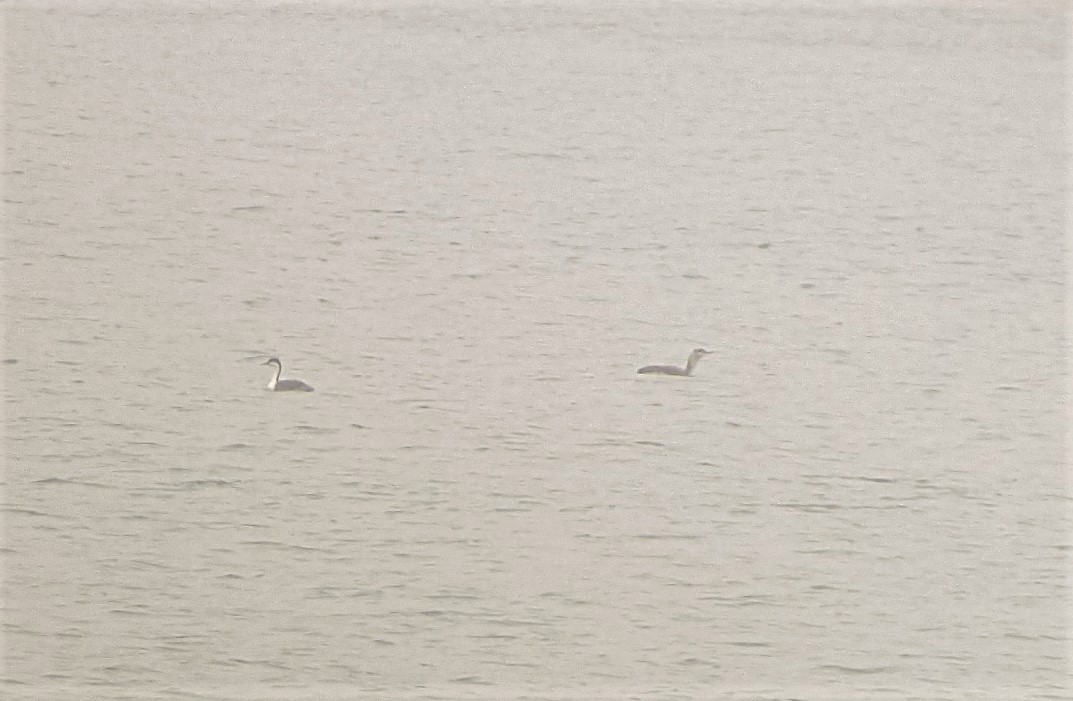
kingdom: Animalia
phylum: Chordata
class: Aves
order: Gaviiformes
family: Gaviidae
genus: Gavia
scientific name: Gavia stellata
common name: Red-throated loon
